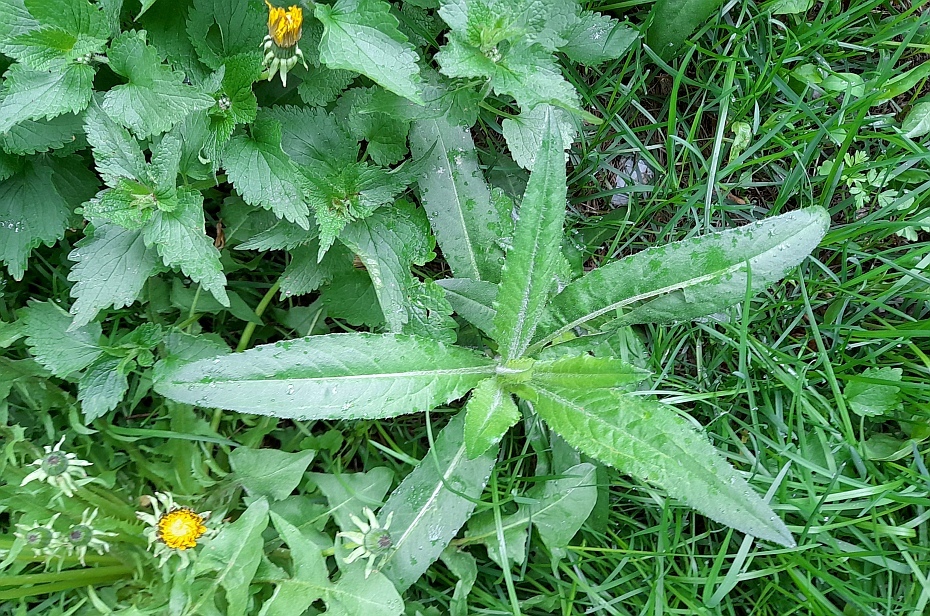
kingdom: Plantae
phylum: Tracheophyta
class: Magnoliopsida
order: Asterales
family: Asteraceae
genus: Cirsium
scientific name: Cirsium arvense
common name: Creeping thistle
